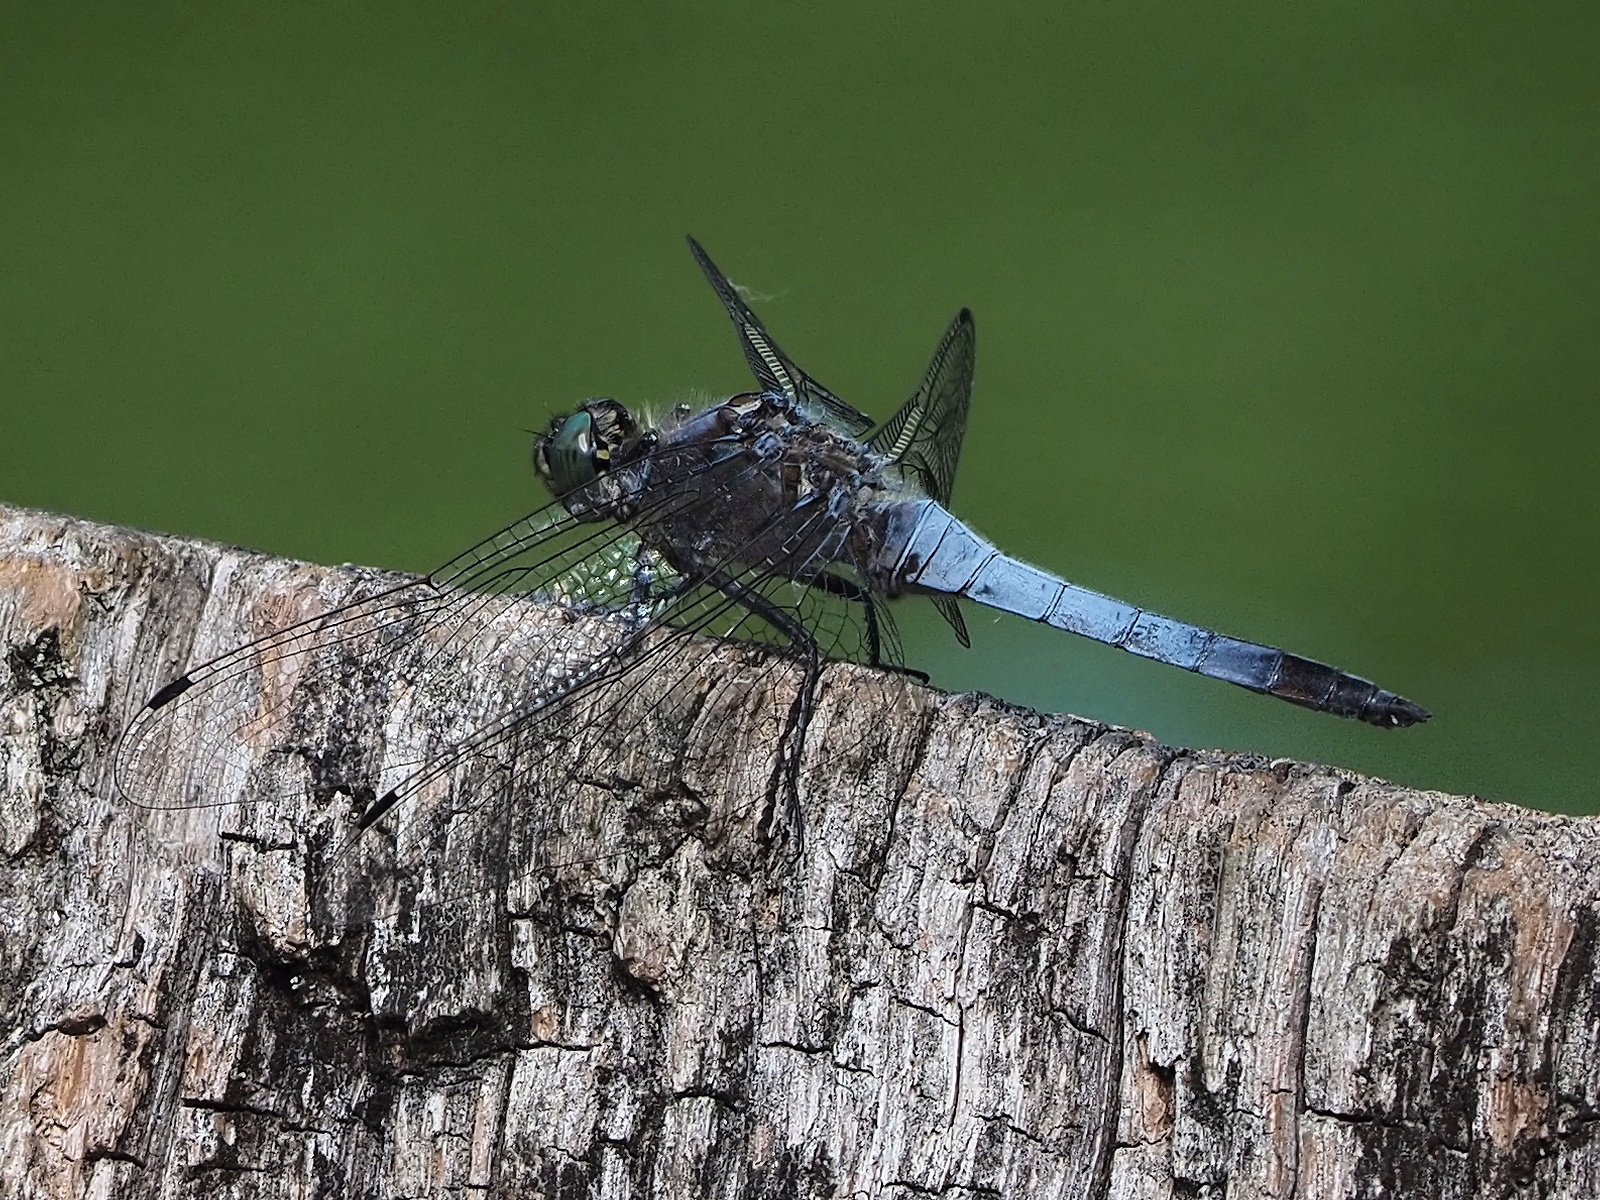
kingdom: Animalia
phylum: Arthropoda
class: Insecta
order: Odonata
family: Libellulidae
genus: Orthetrum
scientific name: Orthetrum cancellatum
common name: Black-tailed skimmer
